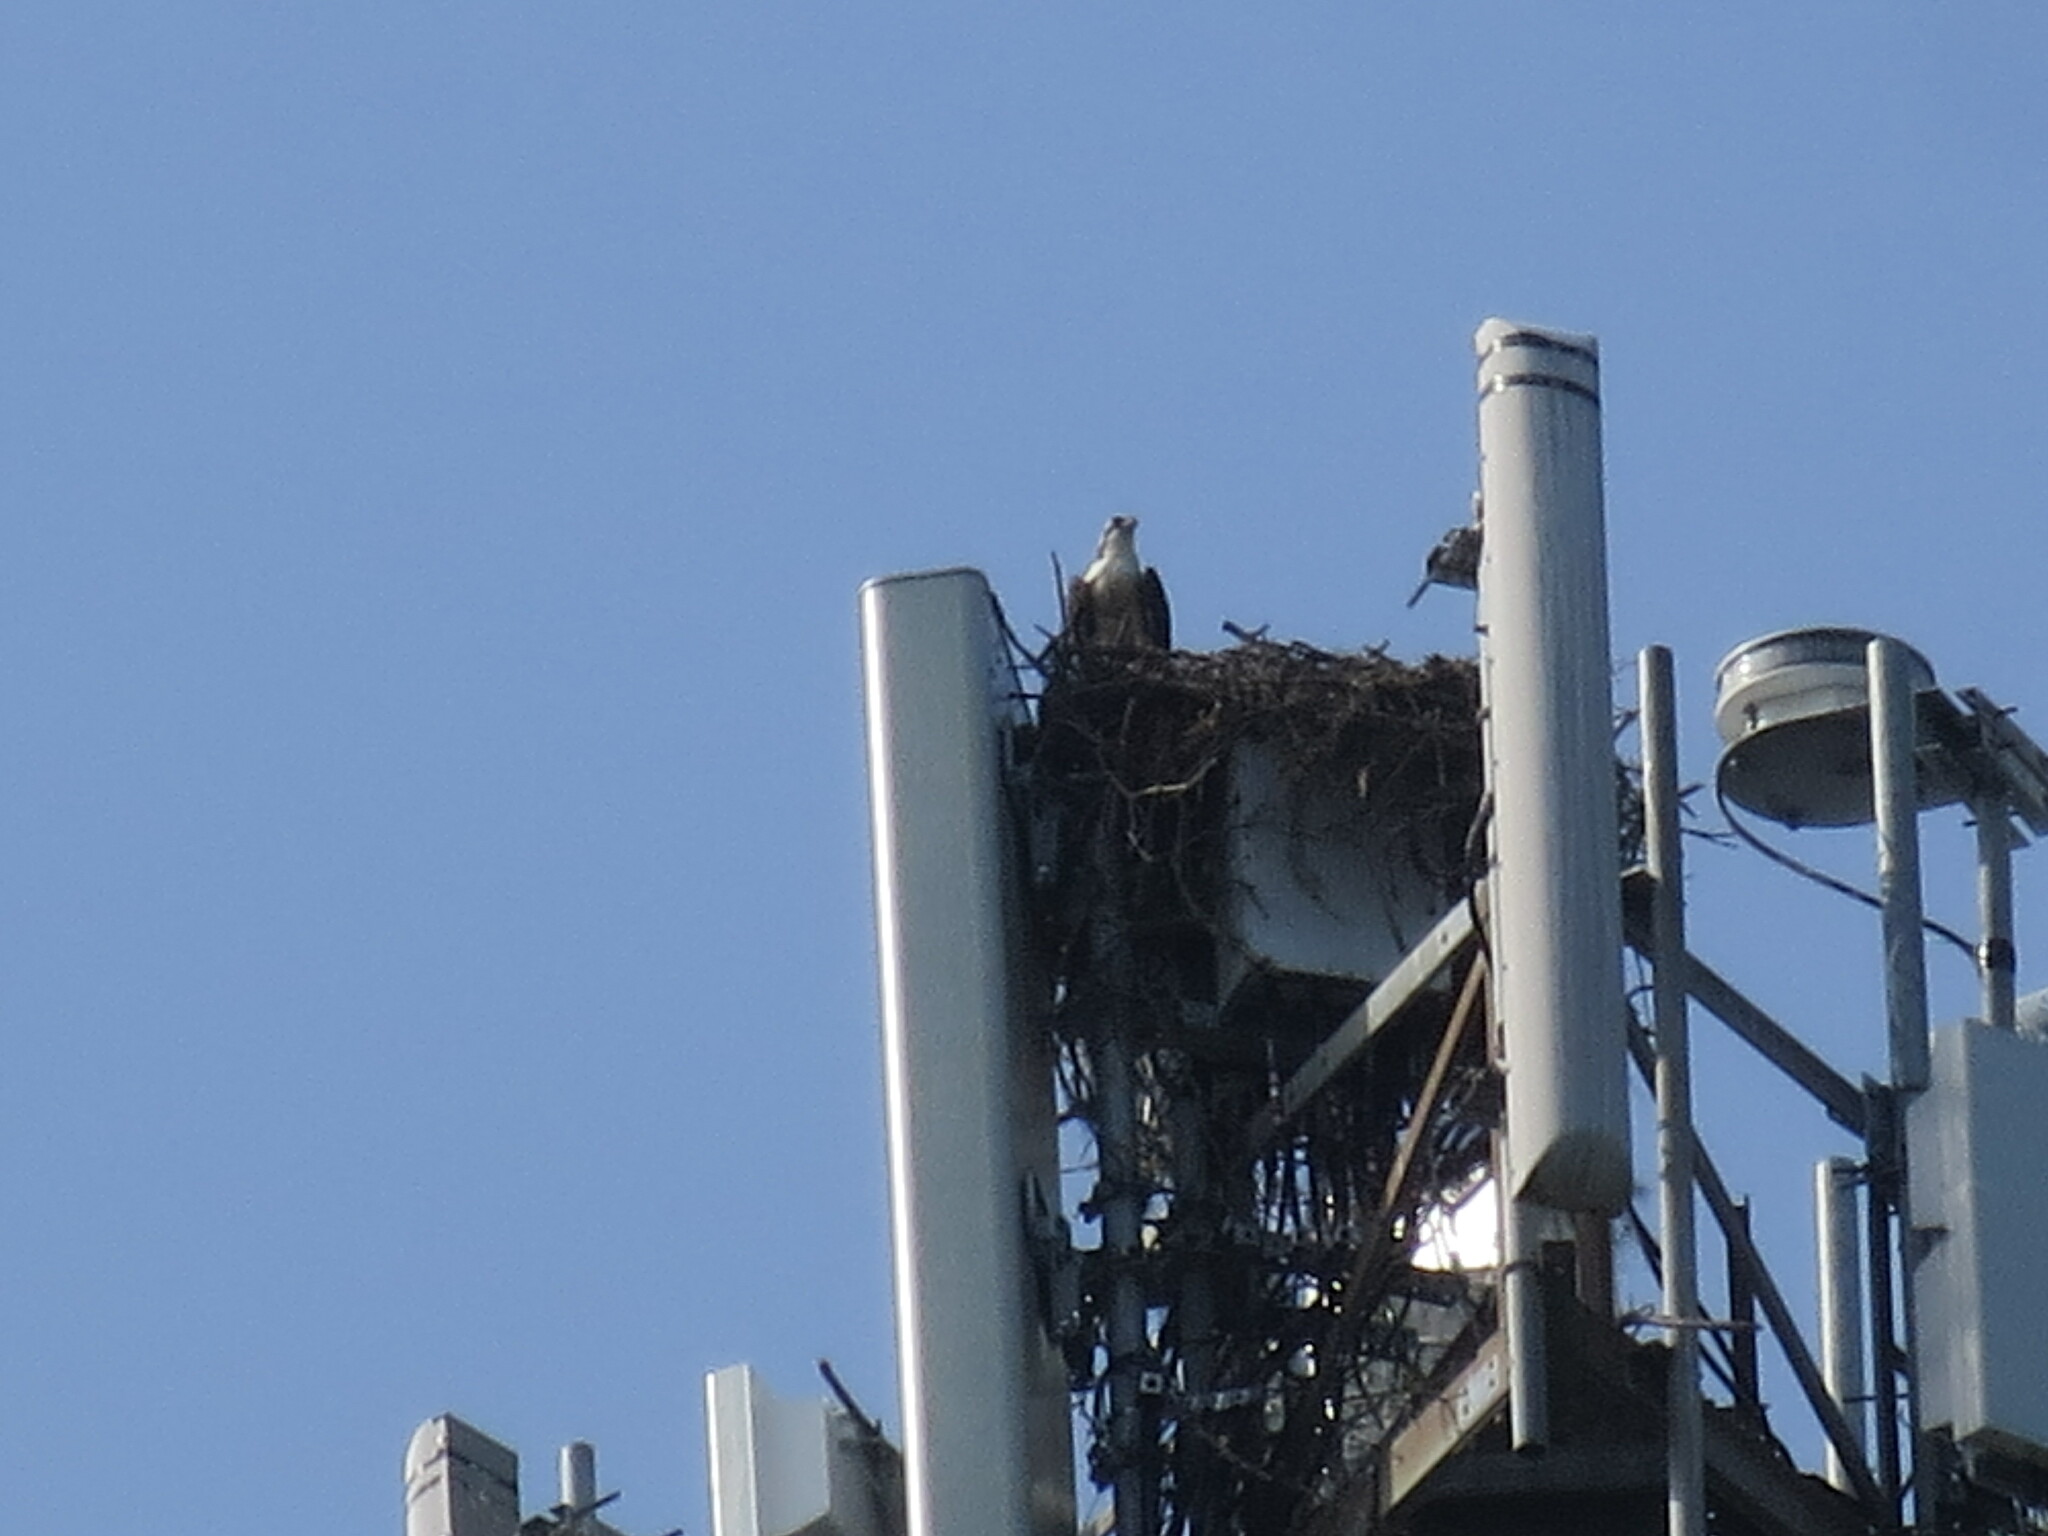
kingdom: Animalia
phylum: Chordata
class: Aves
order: Accipitriformes
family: Pandionidae
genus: Pandion
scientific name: Pandion haliaetus
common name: Osprey
